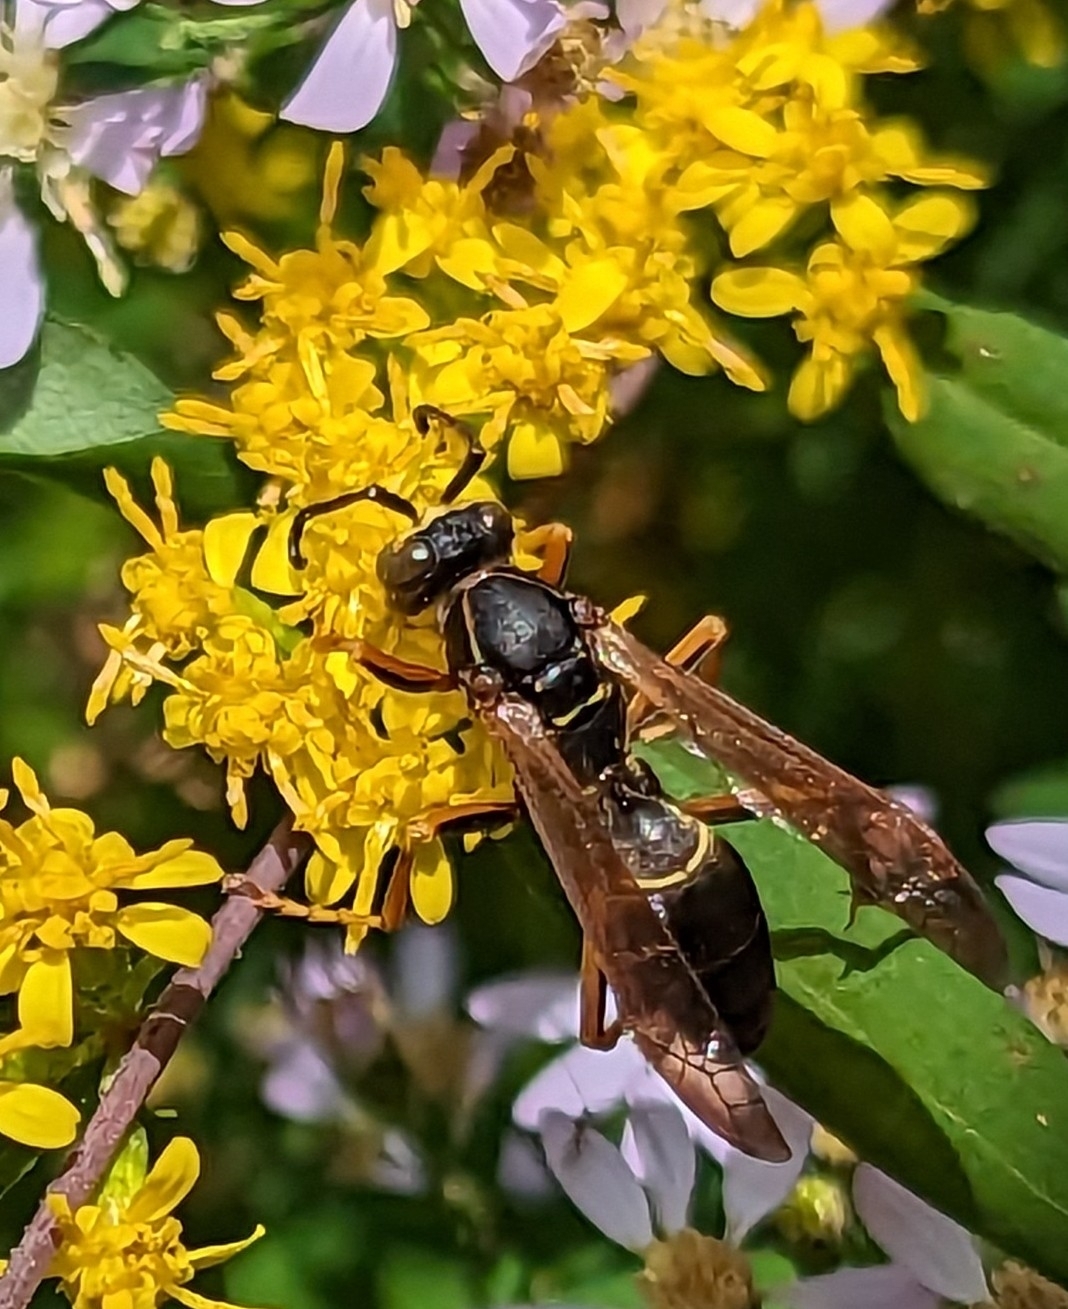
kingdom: Animalia
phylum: Arthropoda
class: Insecta
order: Hymenoptera
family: Eumenidae
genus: Polistes
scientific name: Polistes fuscatus
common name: Dark paper wasp
